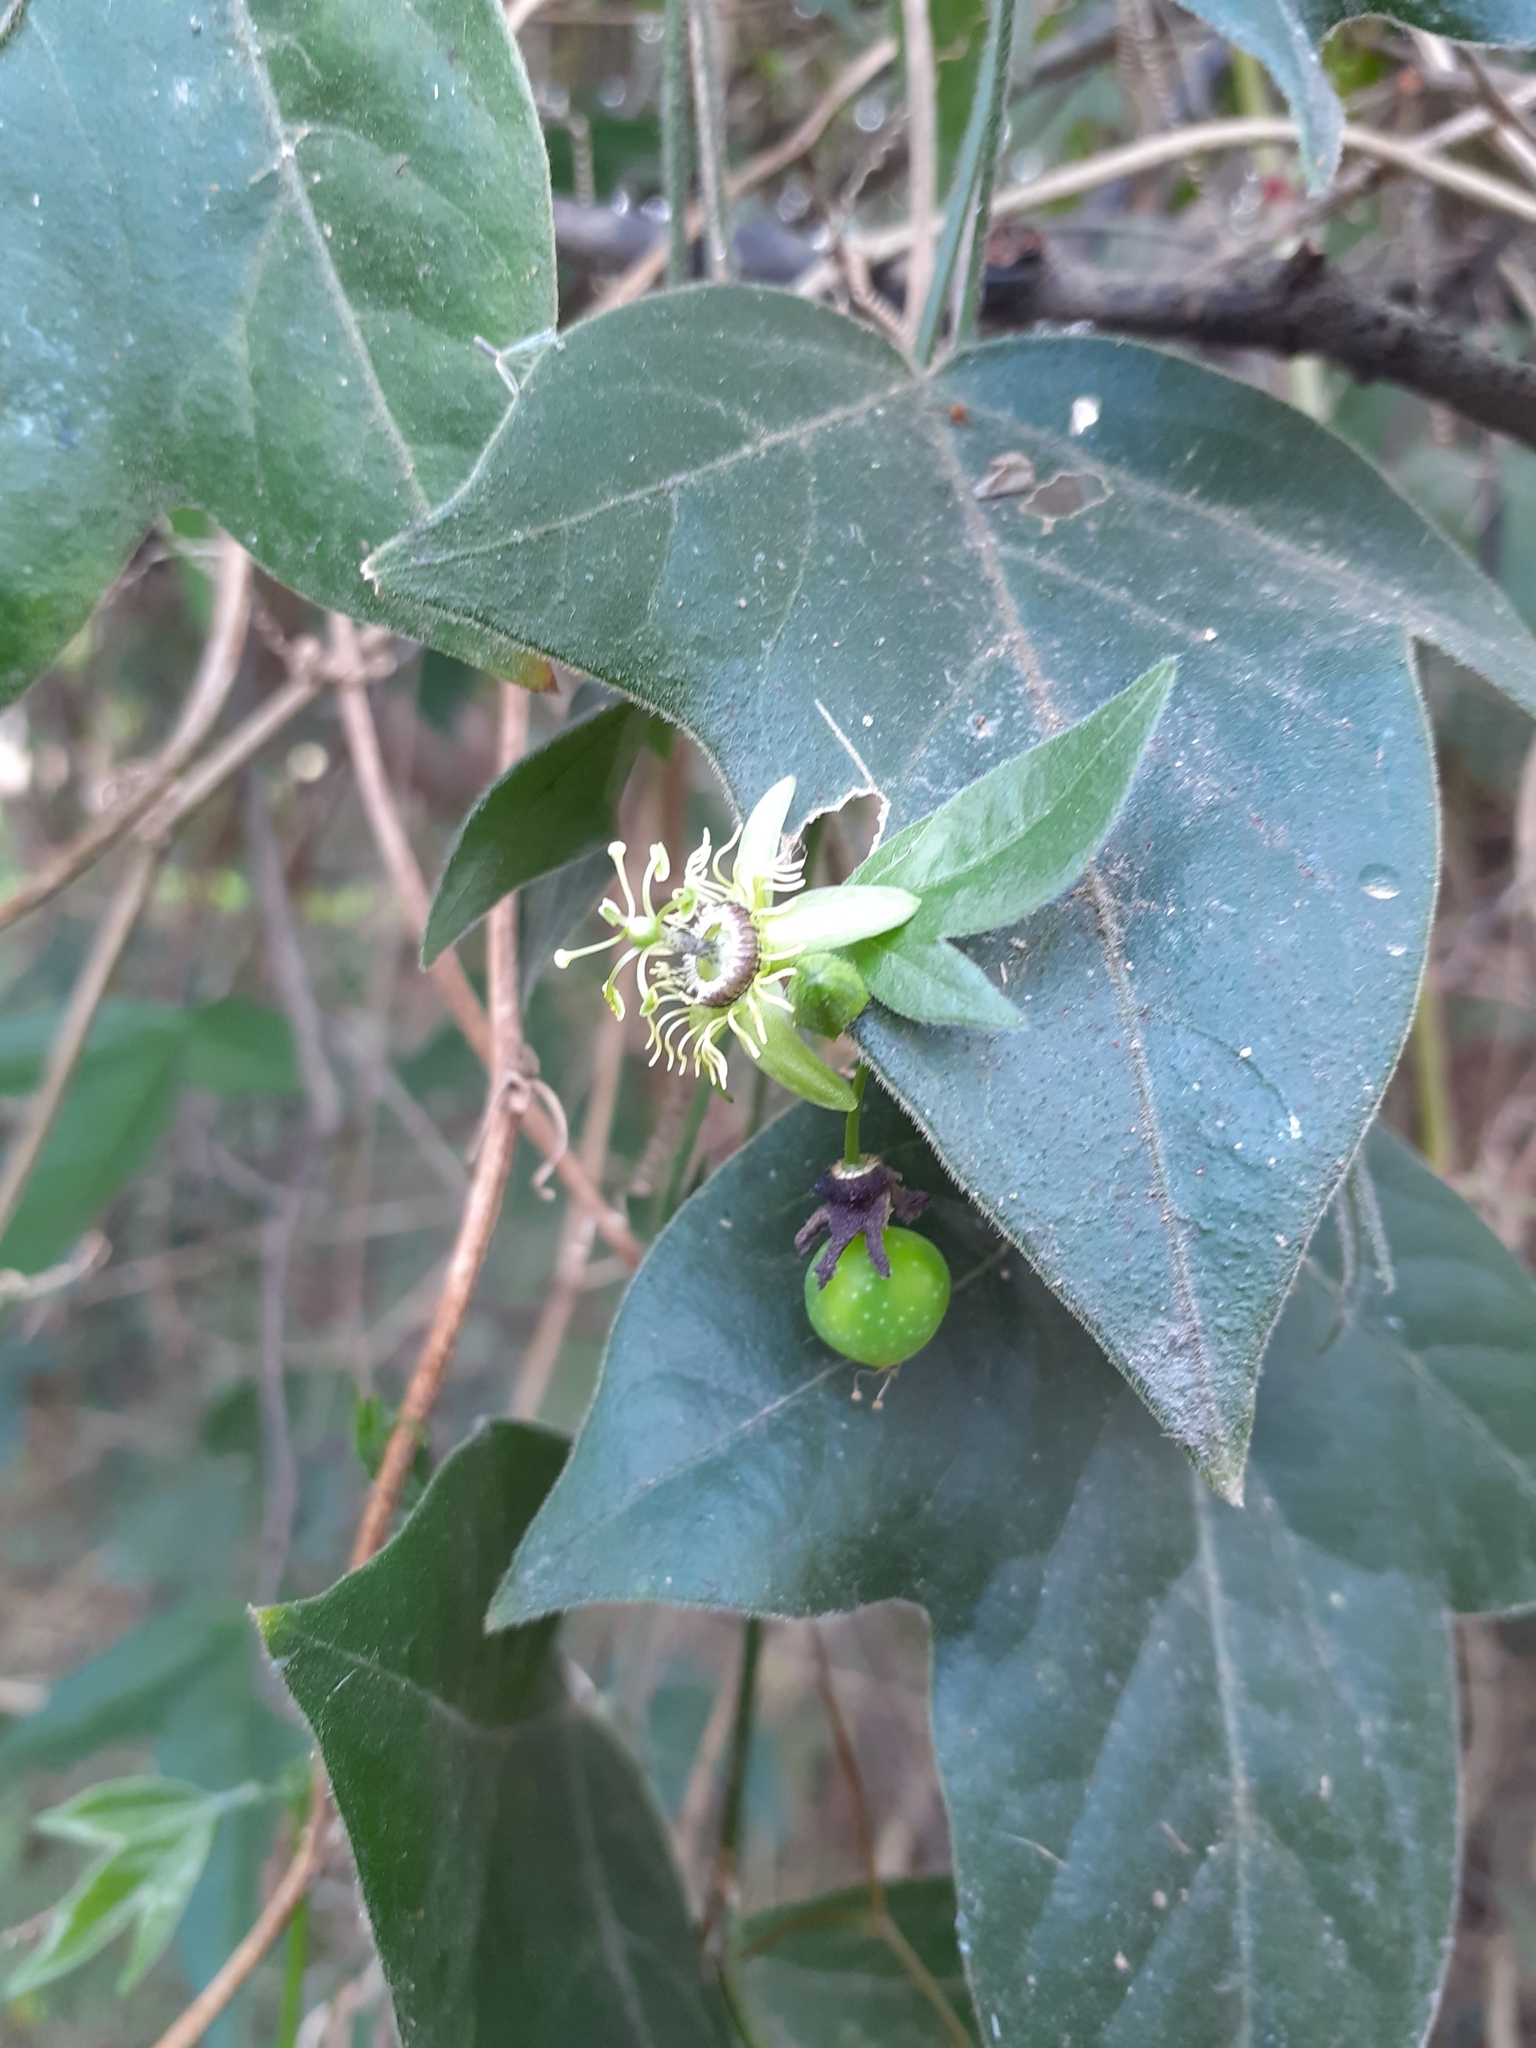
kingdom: Plantae
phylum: Tracheophyta
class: Magnoliopsida
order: Malpighiales
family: Passifloraceae
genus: Passiflora
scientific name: Passiflora suberosa
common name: Wild passionfruit
